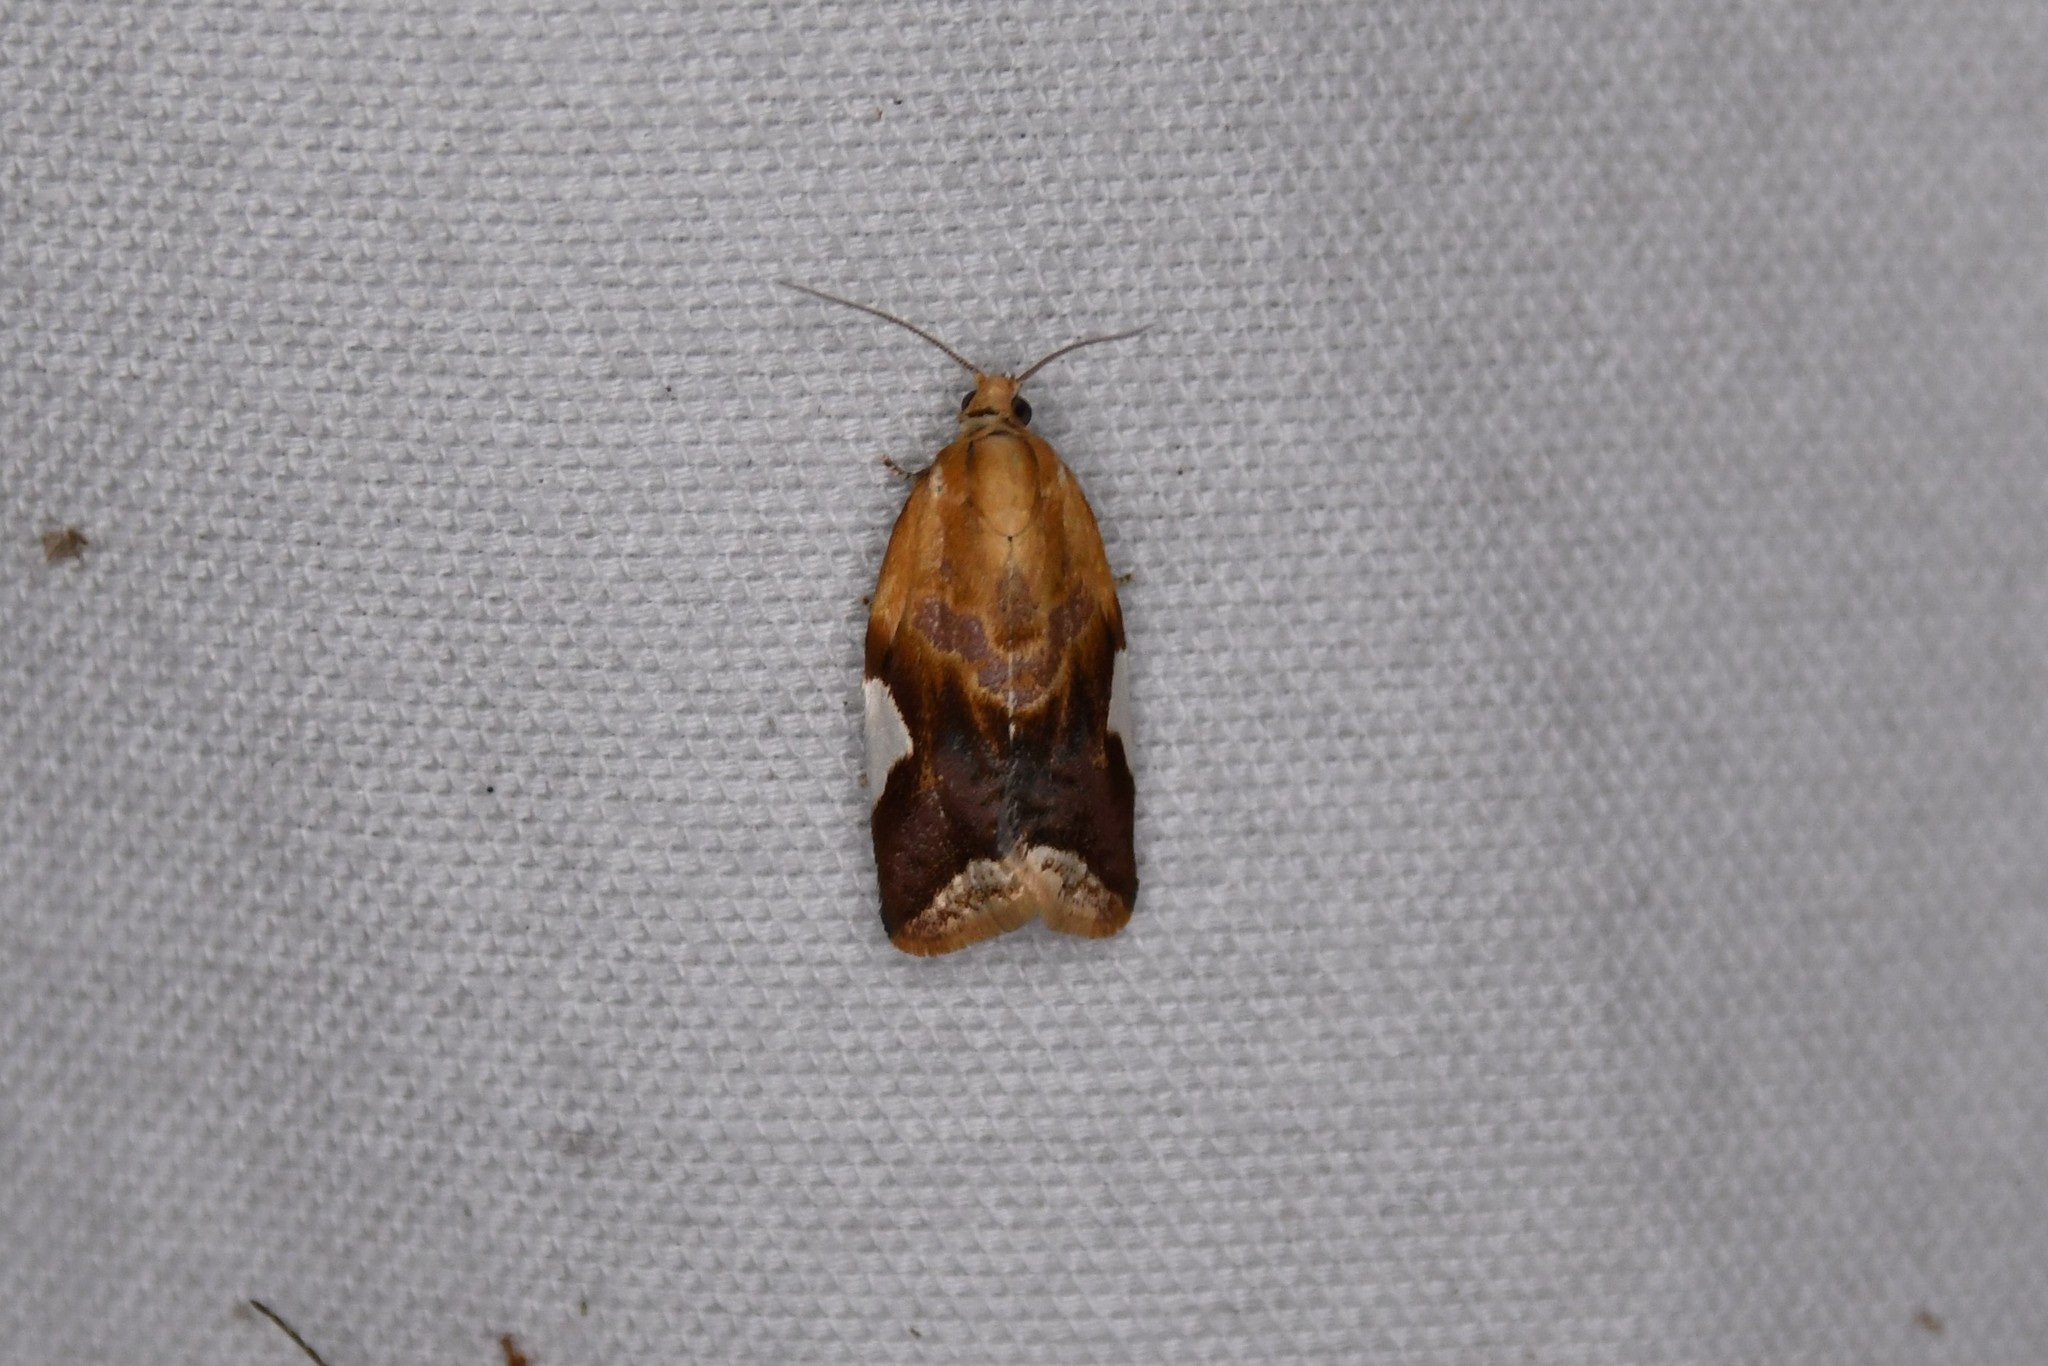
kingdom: Animalia
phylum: Arthropoda
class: Insecta
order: Lepidoptera
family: Tortricidae
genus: Clepsis
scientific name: Clepsis persicana
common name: White triangle tortrix
